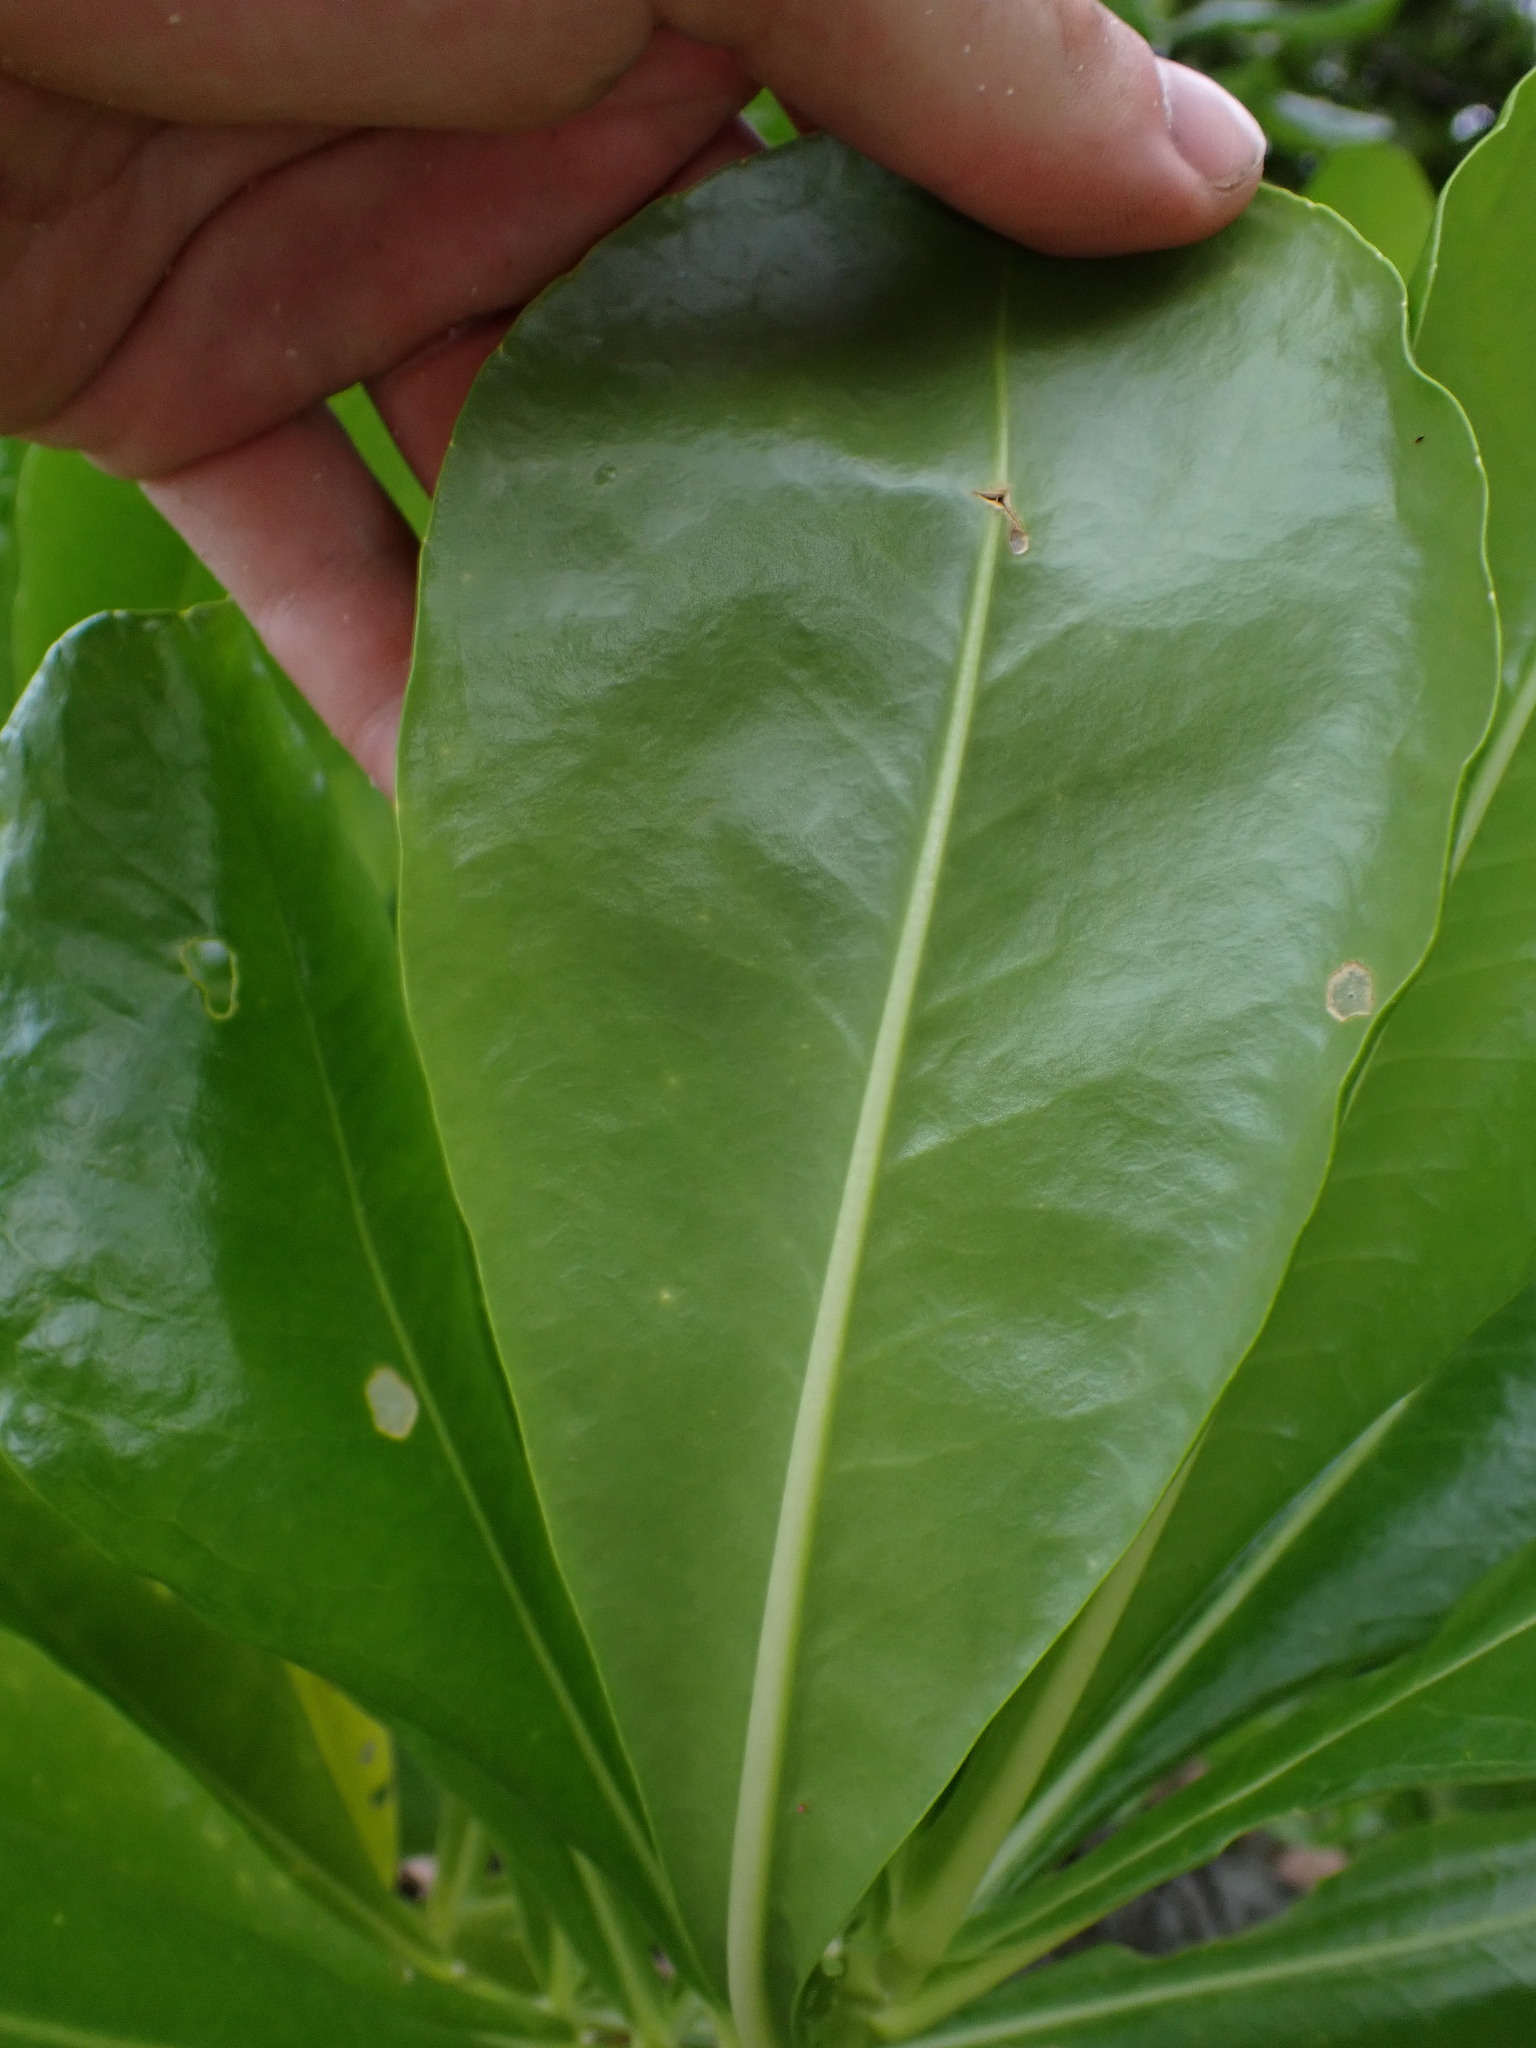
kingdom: Plantae
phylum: Tracheophyta
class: Magnoliopsida
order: Asterales
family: Goodeniaceae
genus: Scaevola
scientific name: Scaevola taccada
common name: Sea lettucetree
